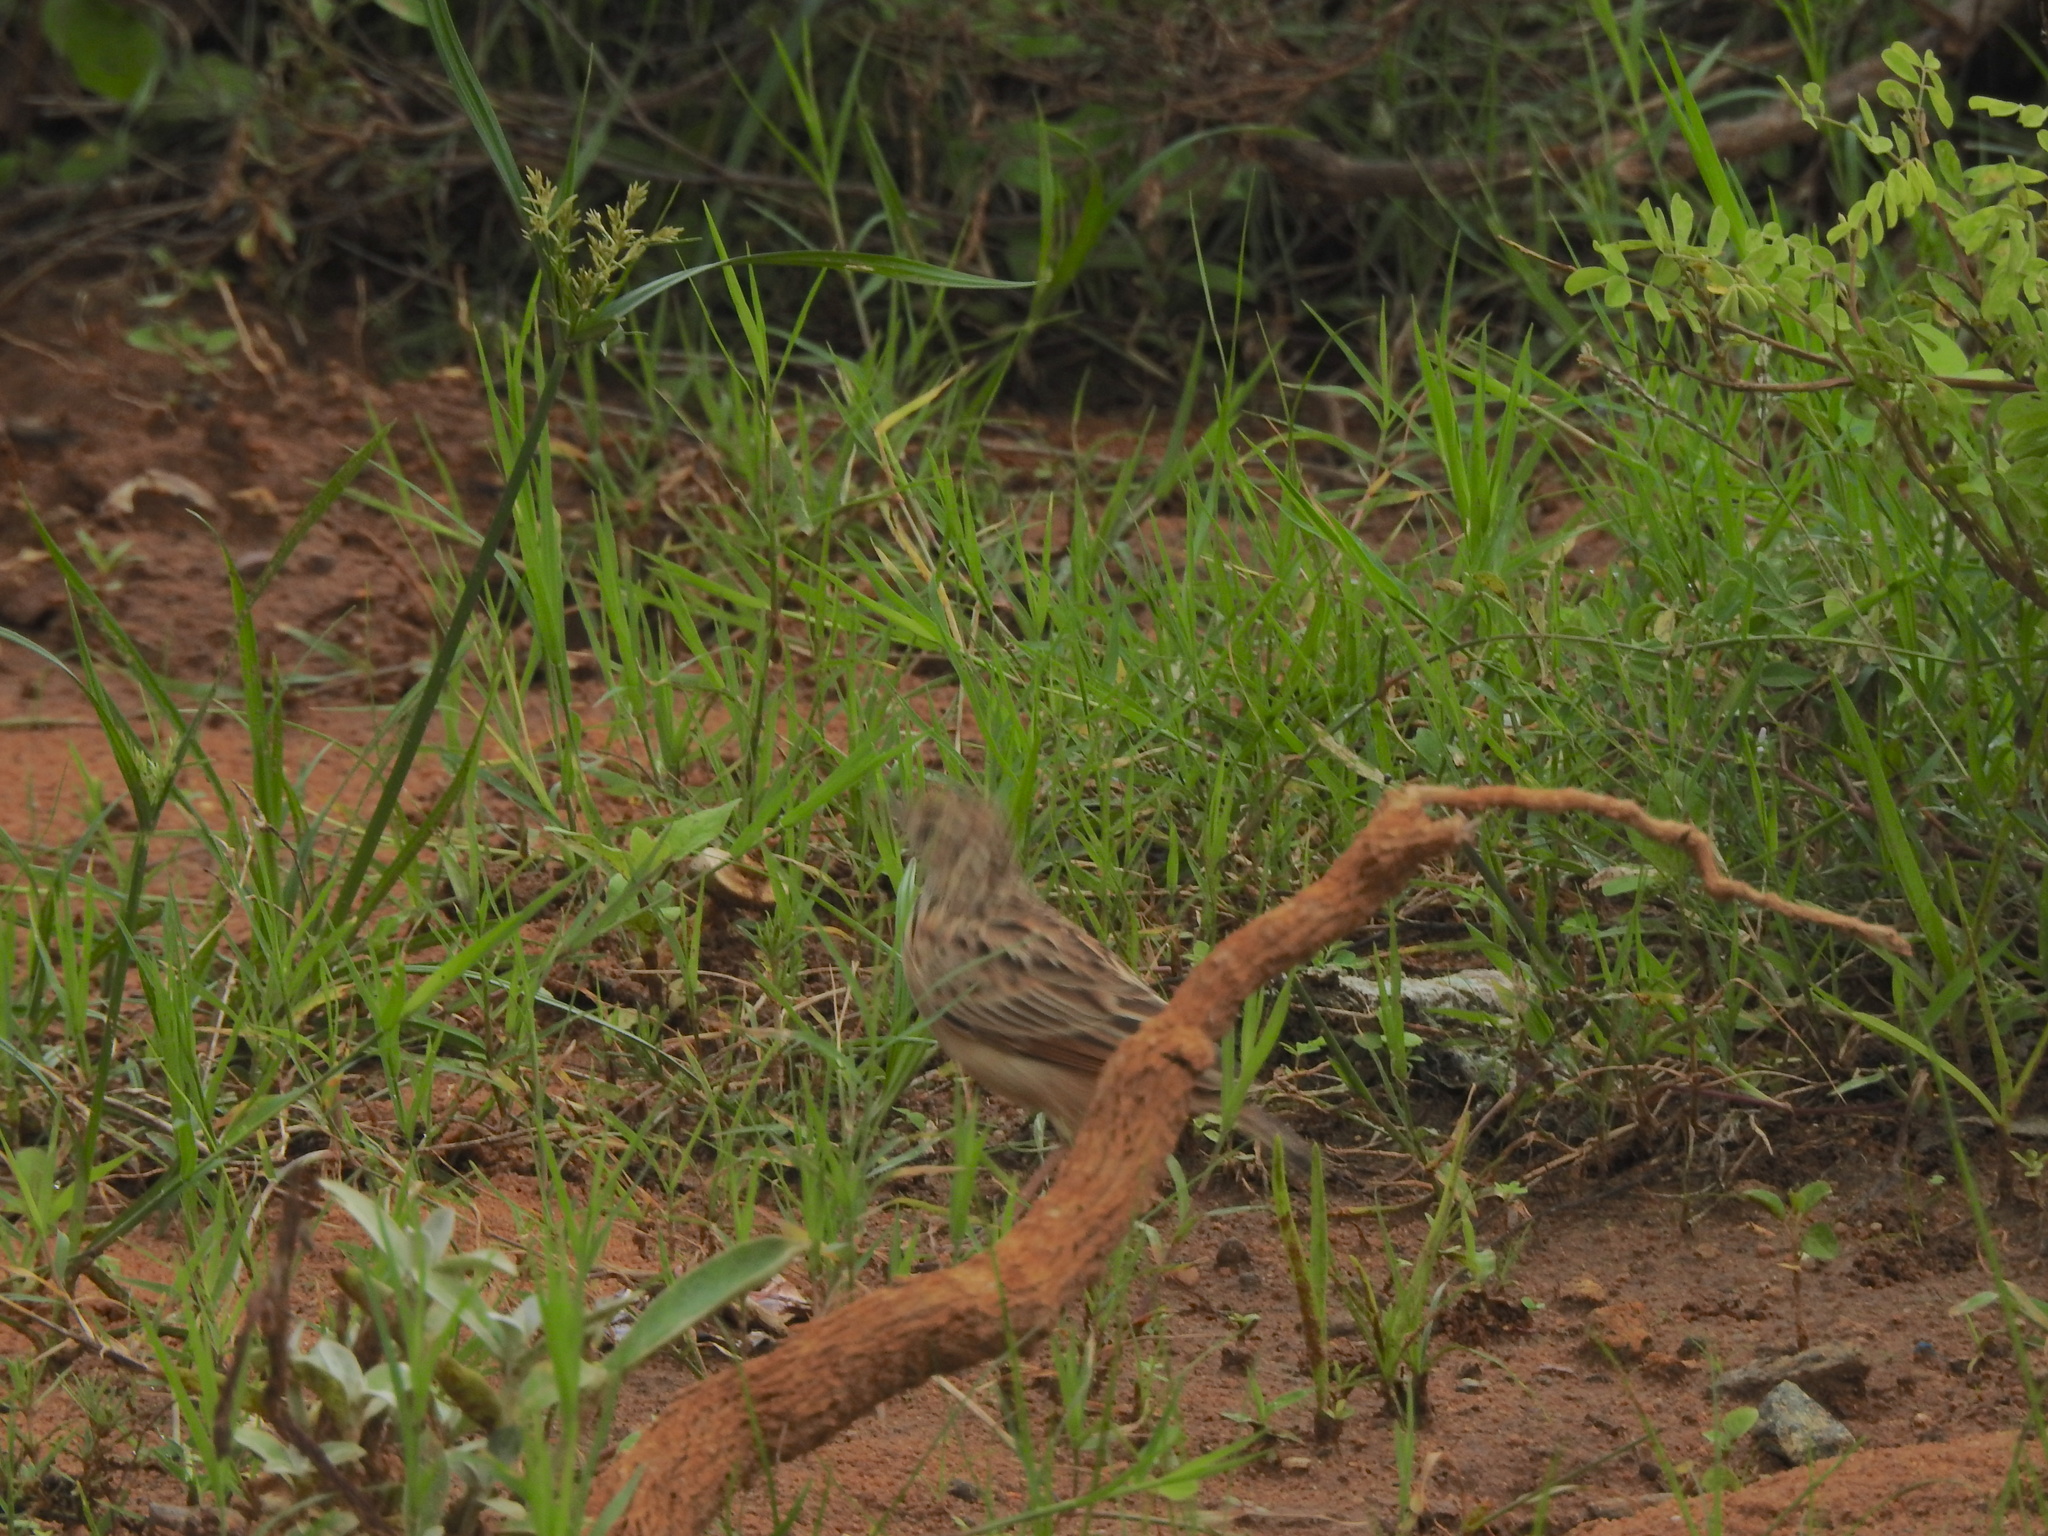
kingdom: Animalia
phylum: Chordata
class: Aves
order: Passeriformes
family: Alaudidae
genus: Mirafra
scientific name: Mirafra affinis
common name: Jerdon's bushlark
